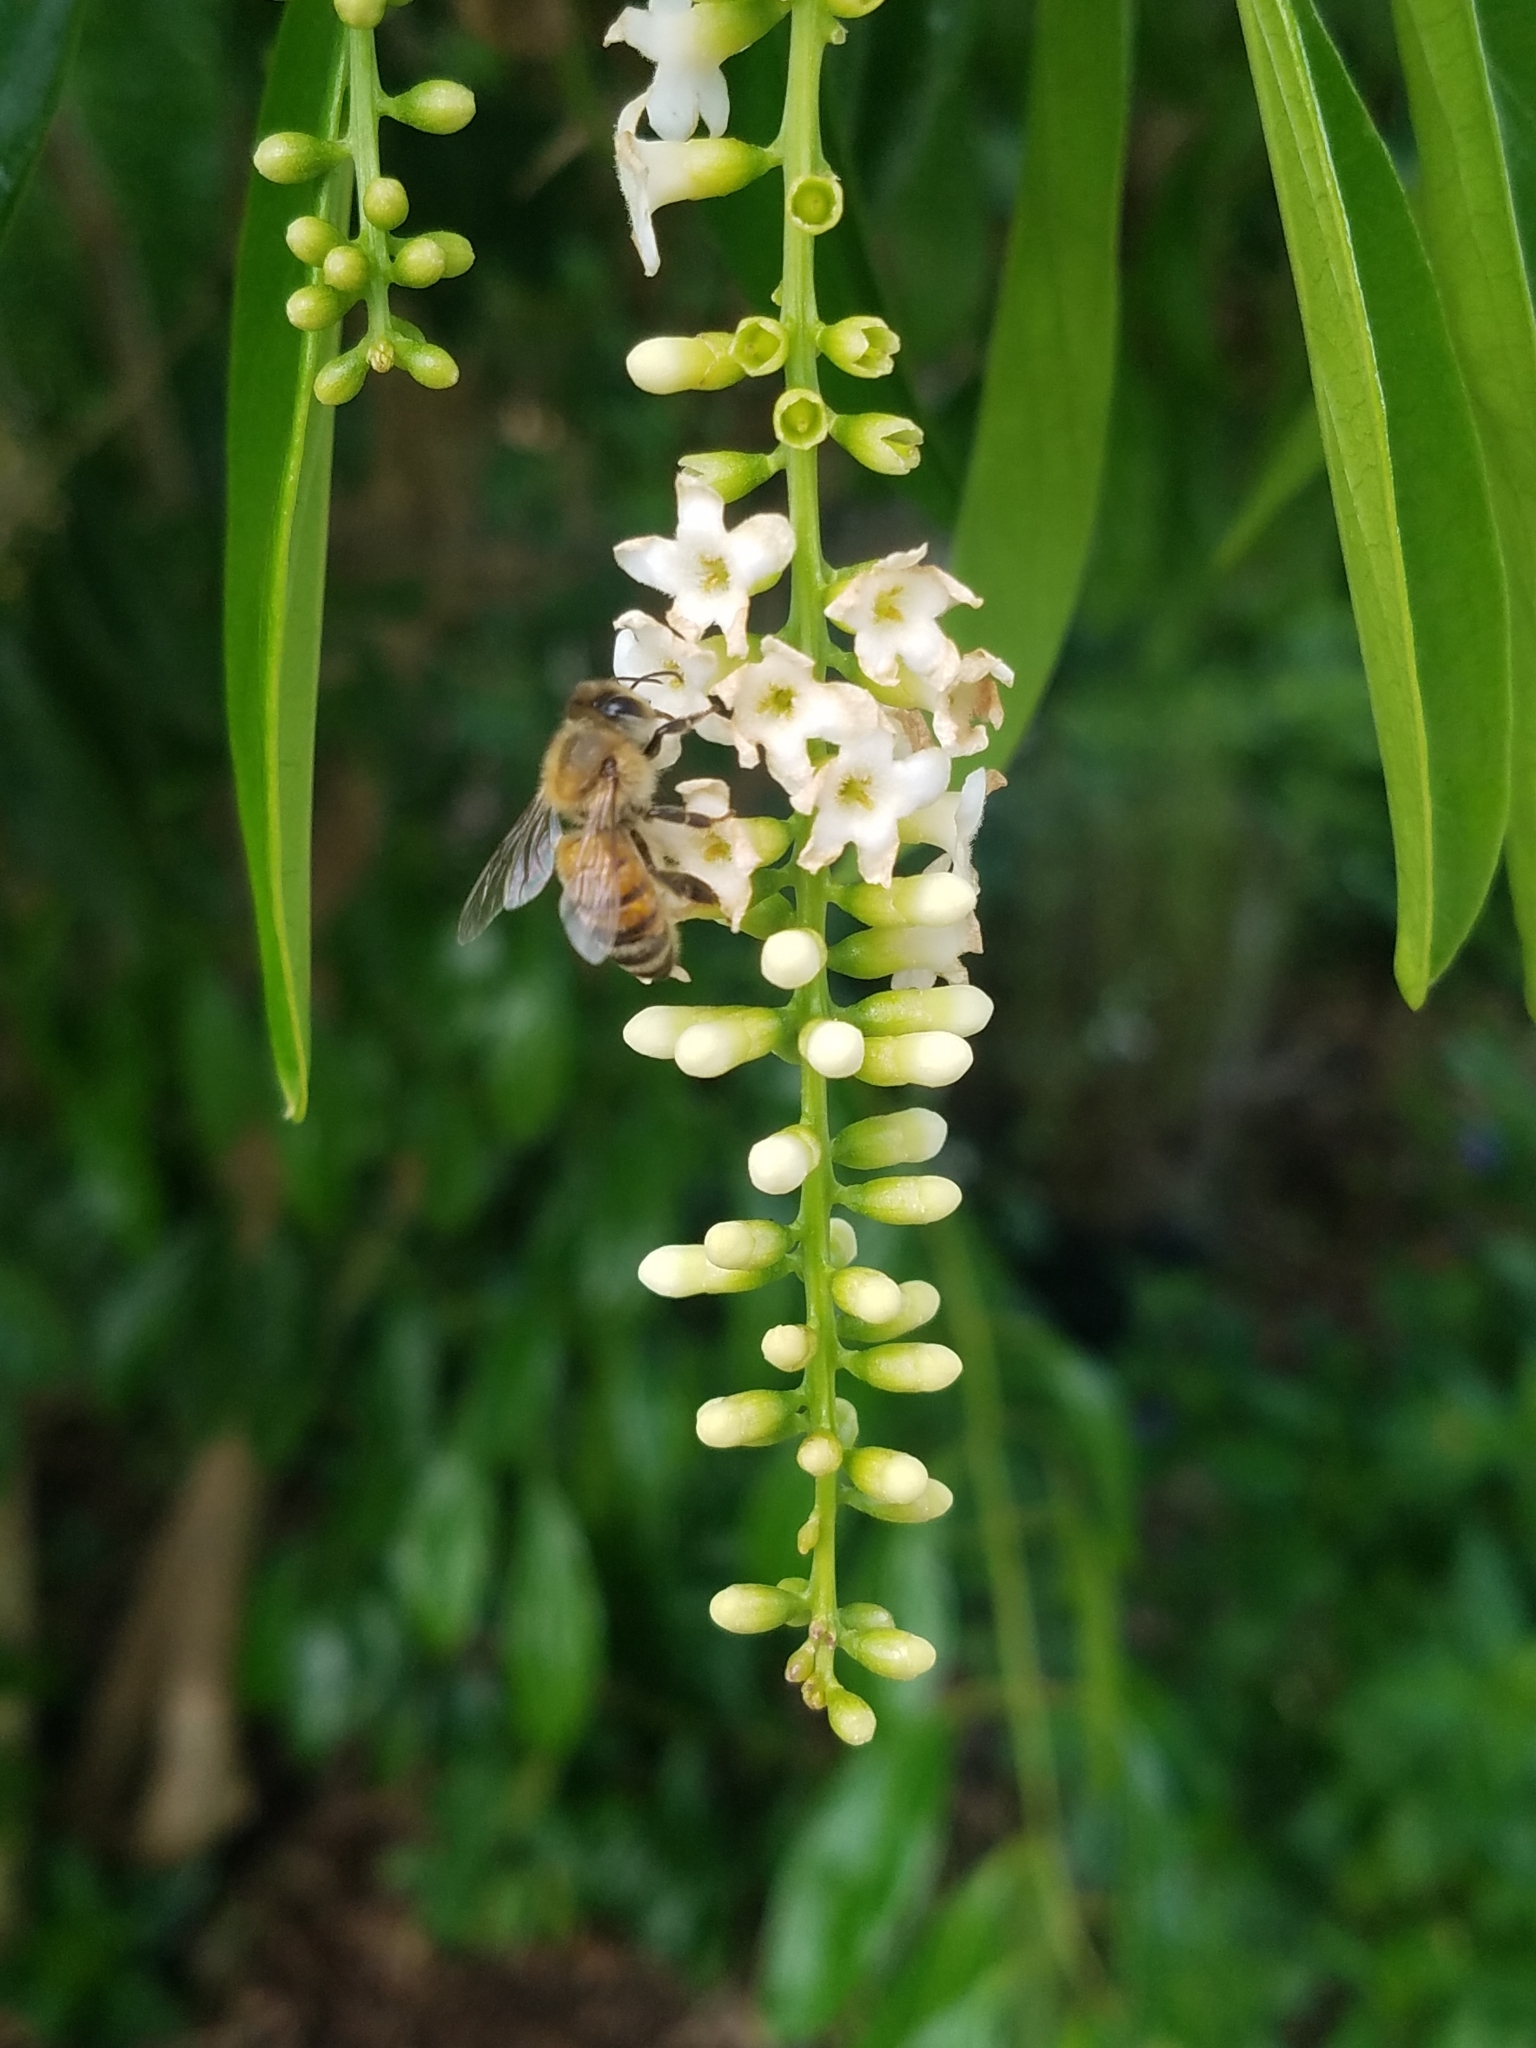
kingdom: Animalia
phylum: Arthropoda
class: Insecta
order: Hymenoptera
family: Apidae
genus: Apis
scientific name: Apis mellifera
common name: Honey bee
